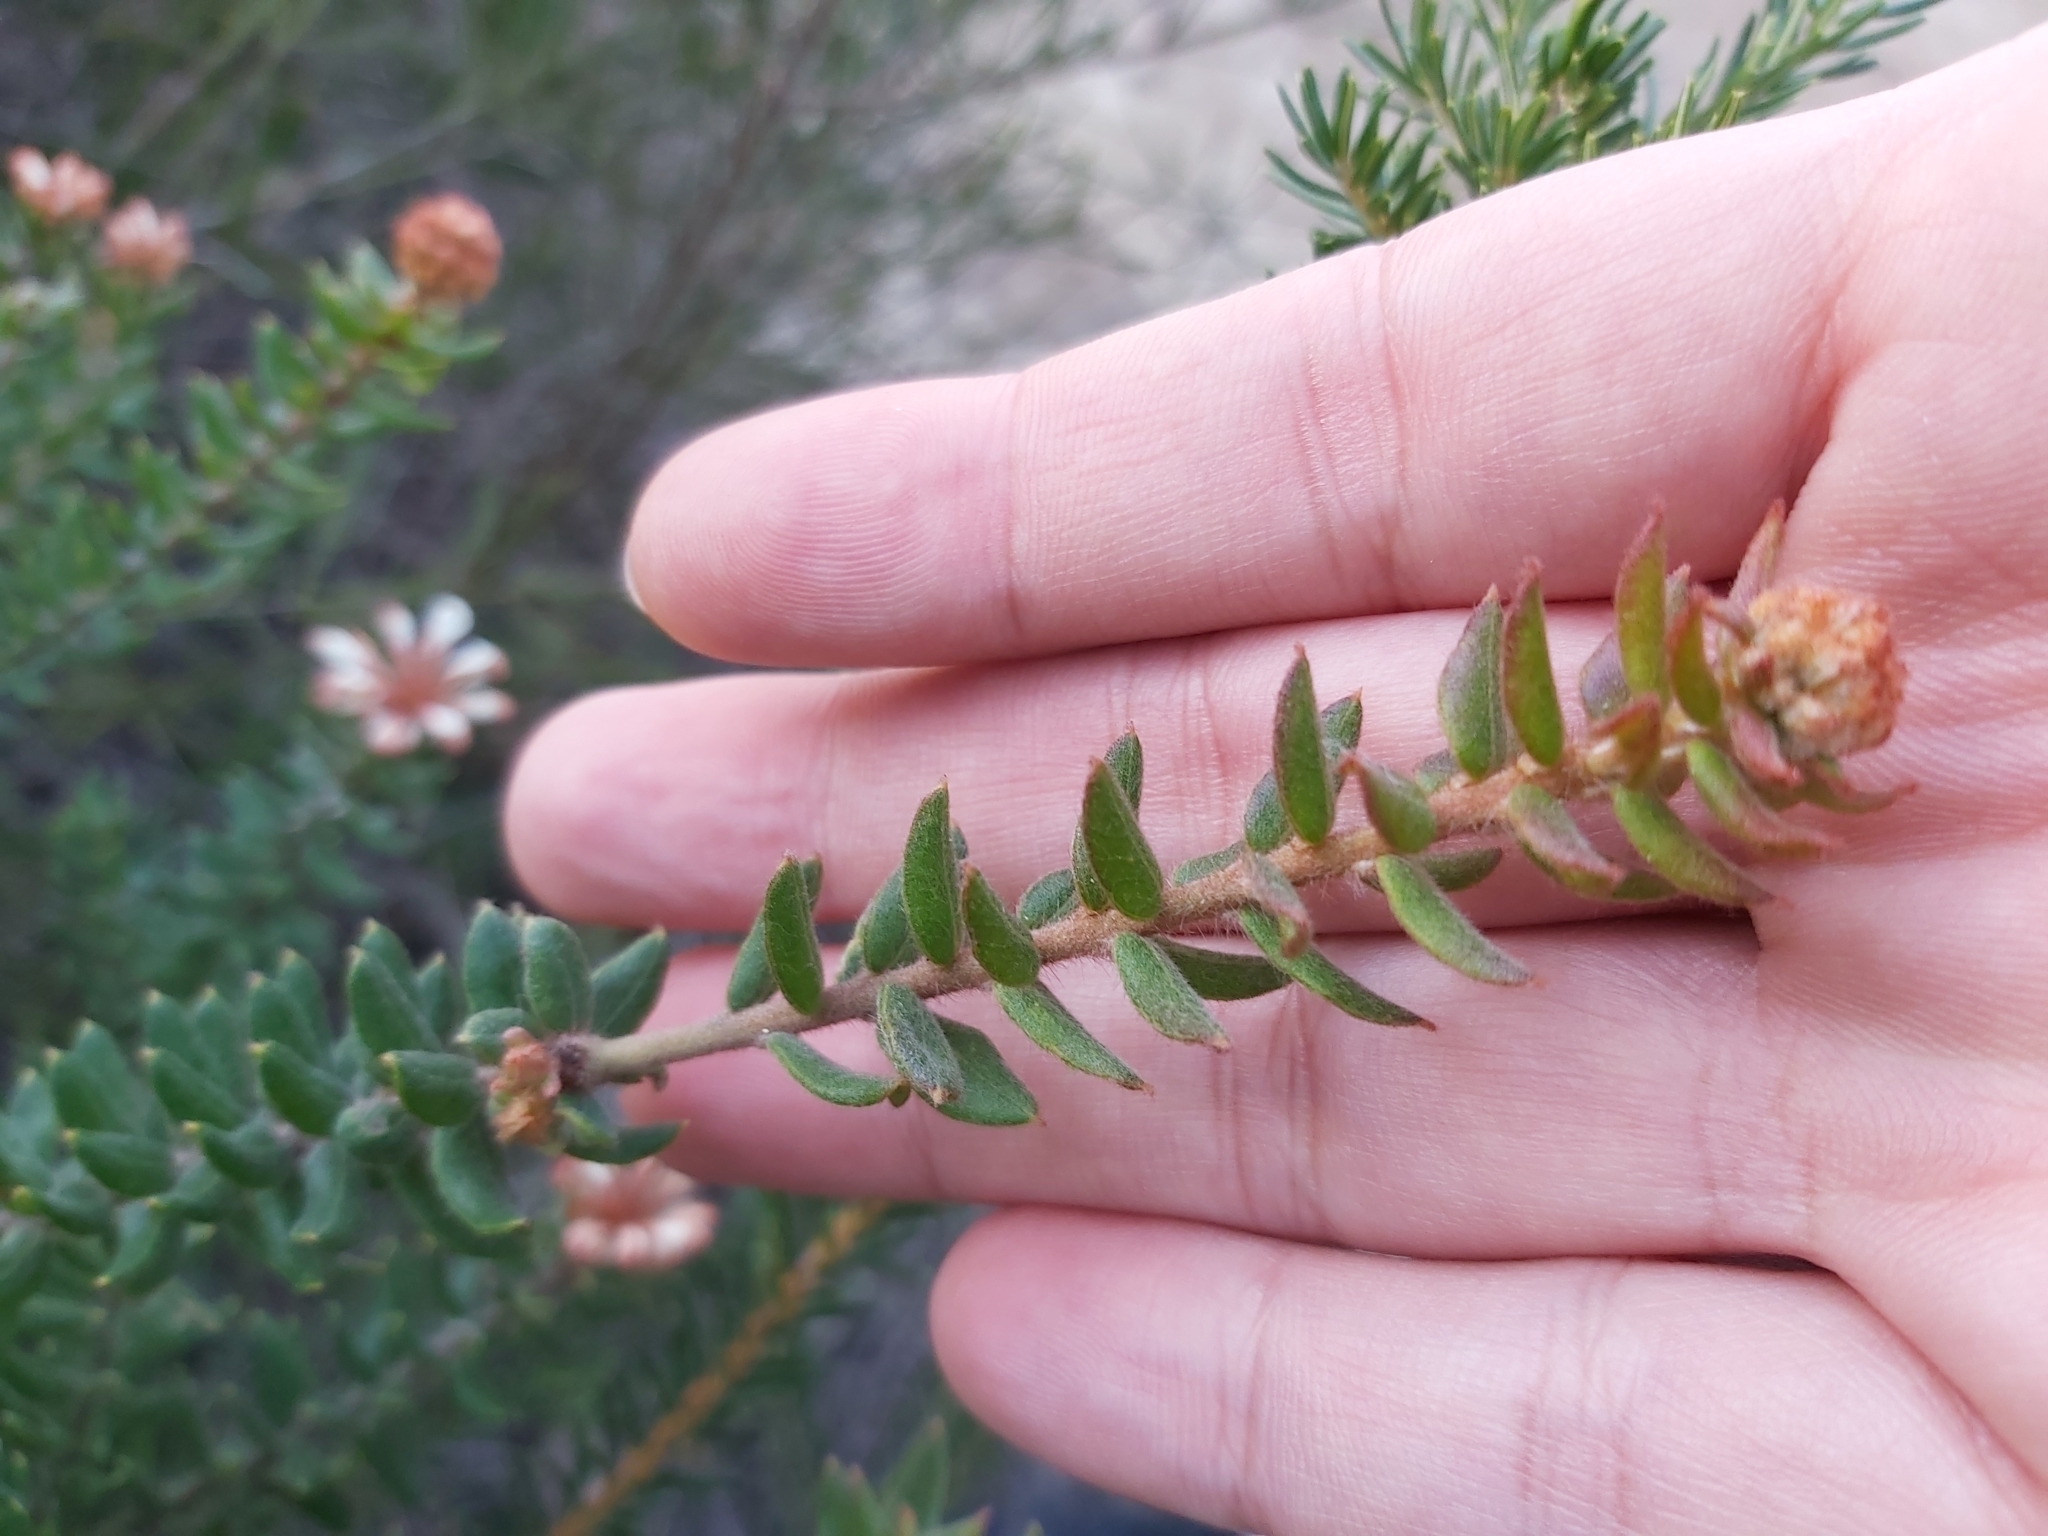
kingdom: Plantae
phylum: Tracheophyta
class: Magnoliopsida
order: Proteales
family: Proteaceae
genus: Grevillea
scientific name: Grevillea buxifolia
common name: Grey spiderflower
